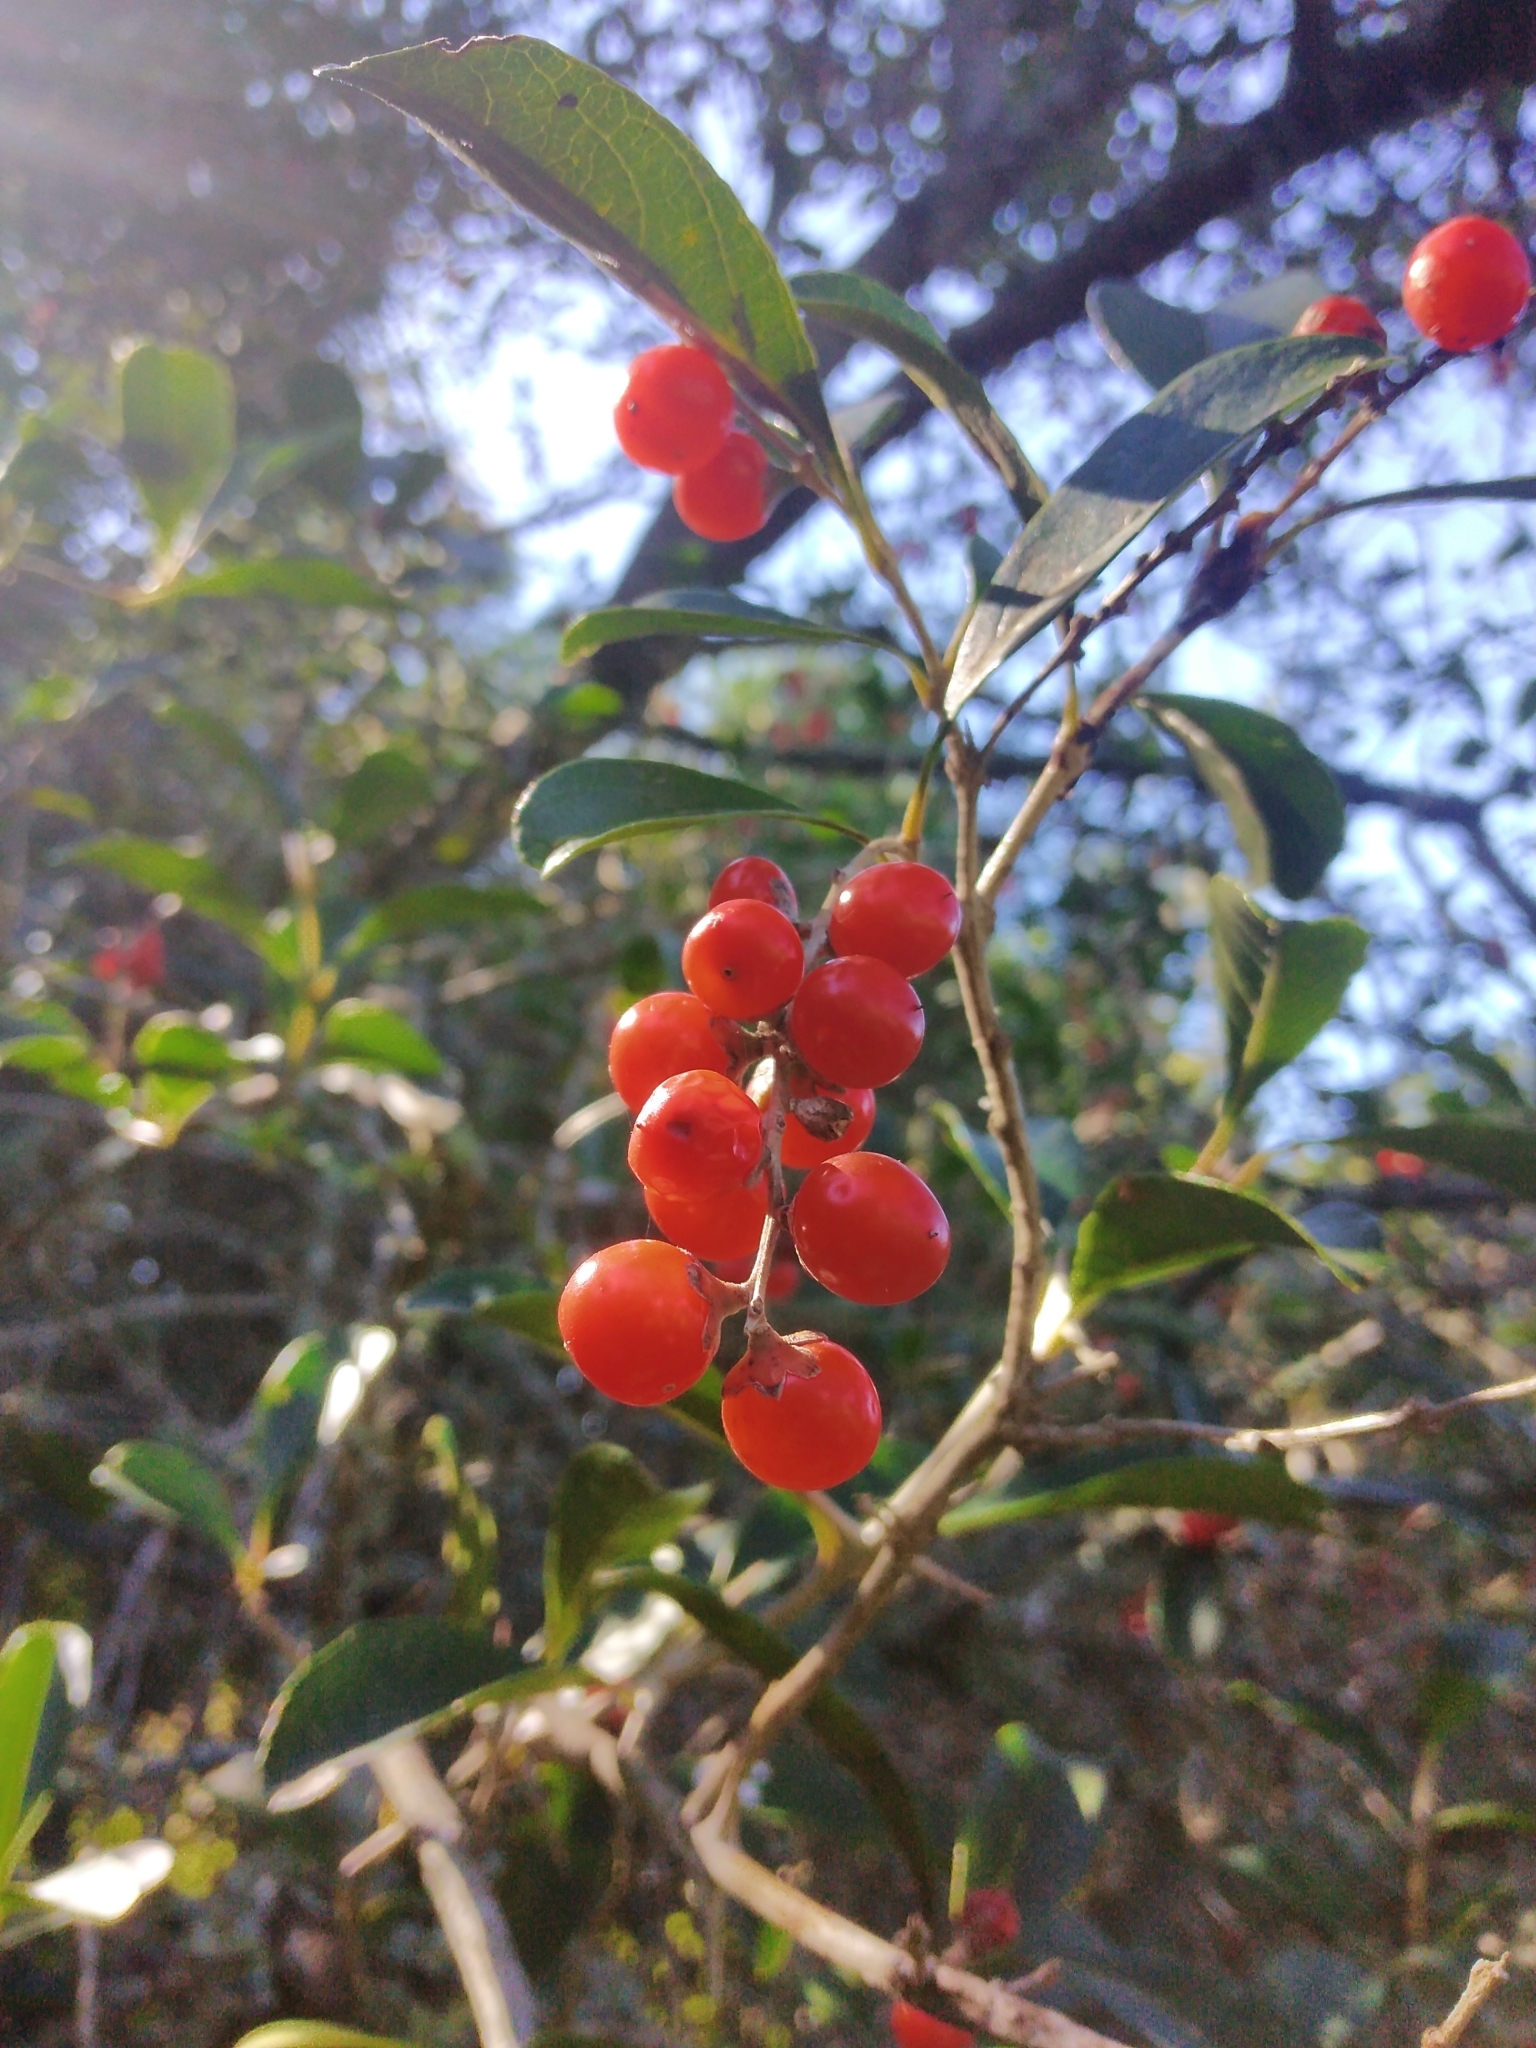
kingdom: Plantae
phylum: Tracheophyta
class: Magnoliopsida
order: Lamiales
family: Verbenaceae
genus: Citharexylum
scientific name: Citharexylum montevidense
